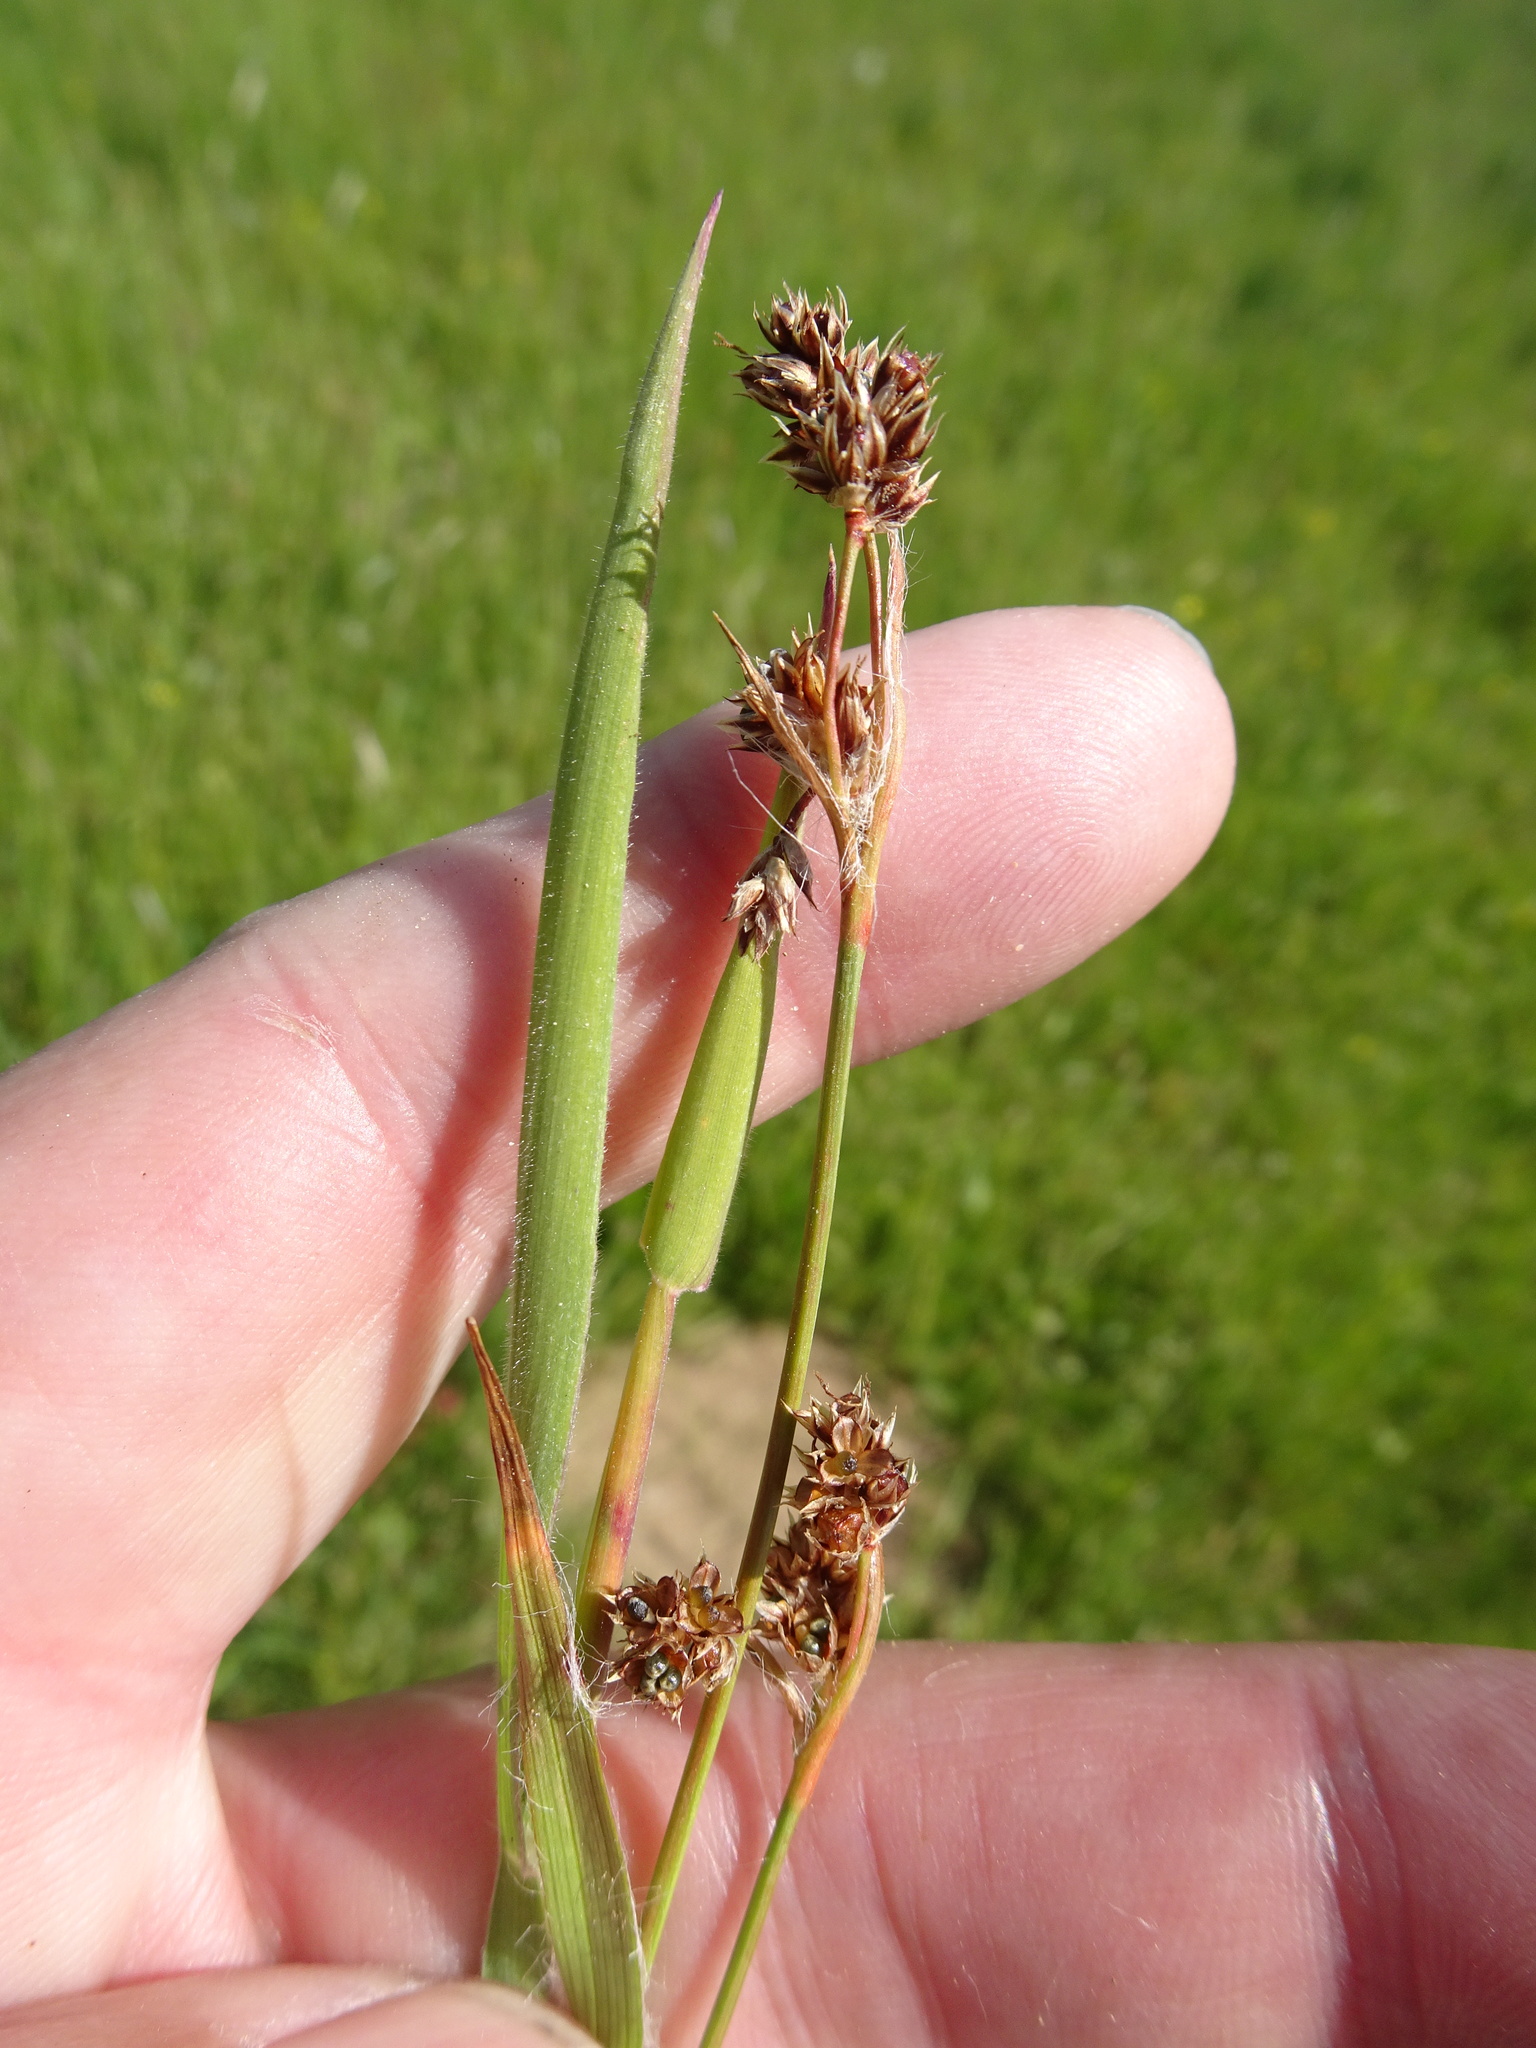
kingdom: Plantae
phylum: Tracheophyta
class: Liliopsida
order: Poales
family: Juncaceae
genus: Luzula
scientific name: Luzula campestris
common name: Field wood-rush
